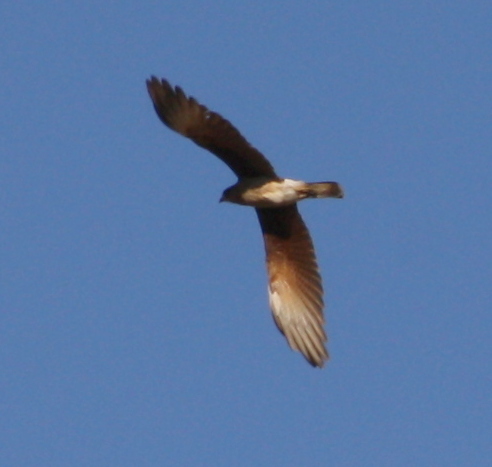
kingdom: Animalia
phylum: Chordata
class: Aves
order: Falconiformes
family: Falconidae
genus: Daptrius
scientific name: Daptrius
